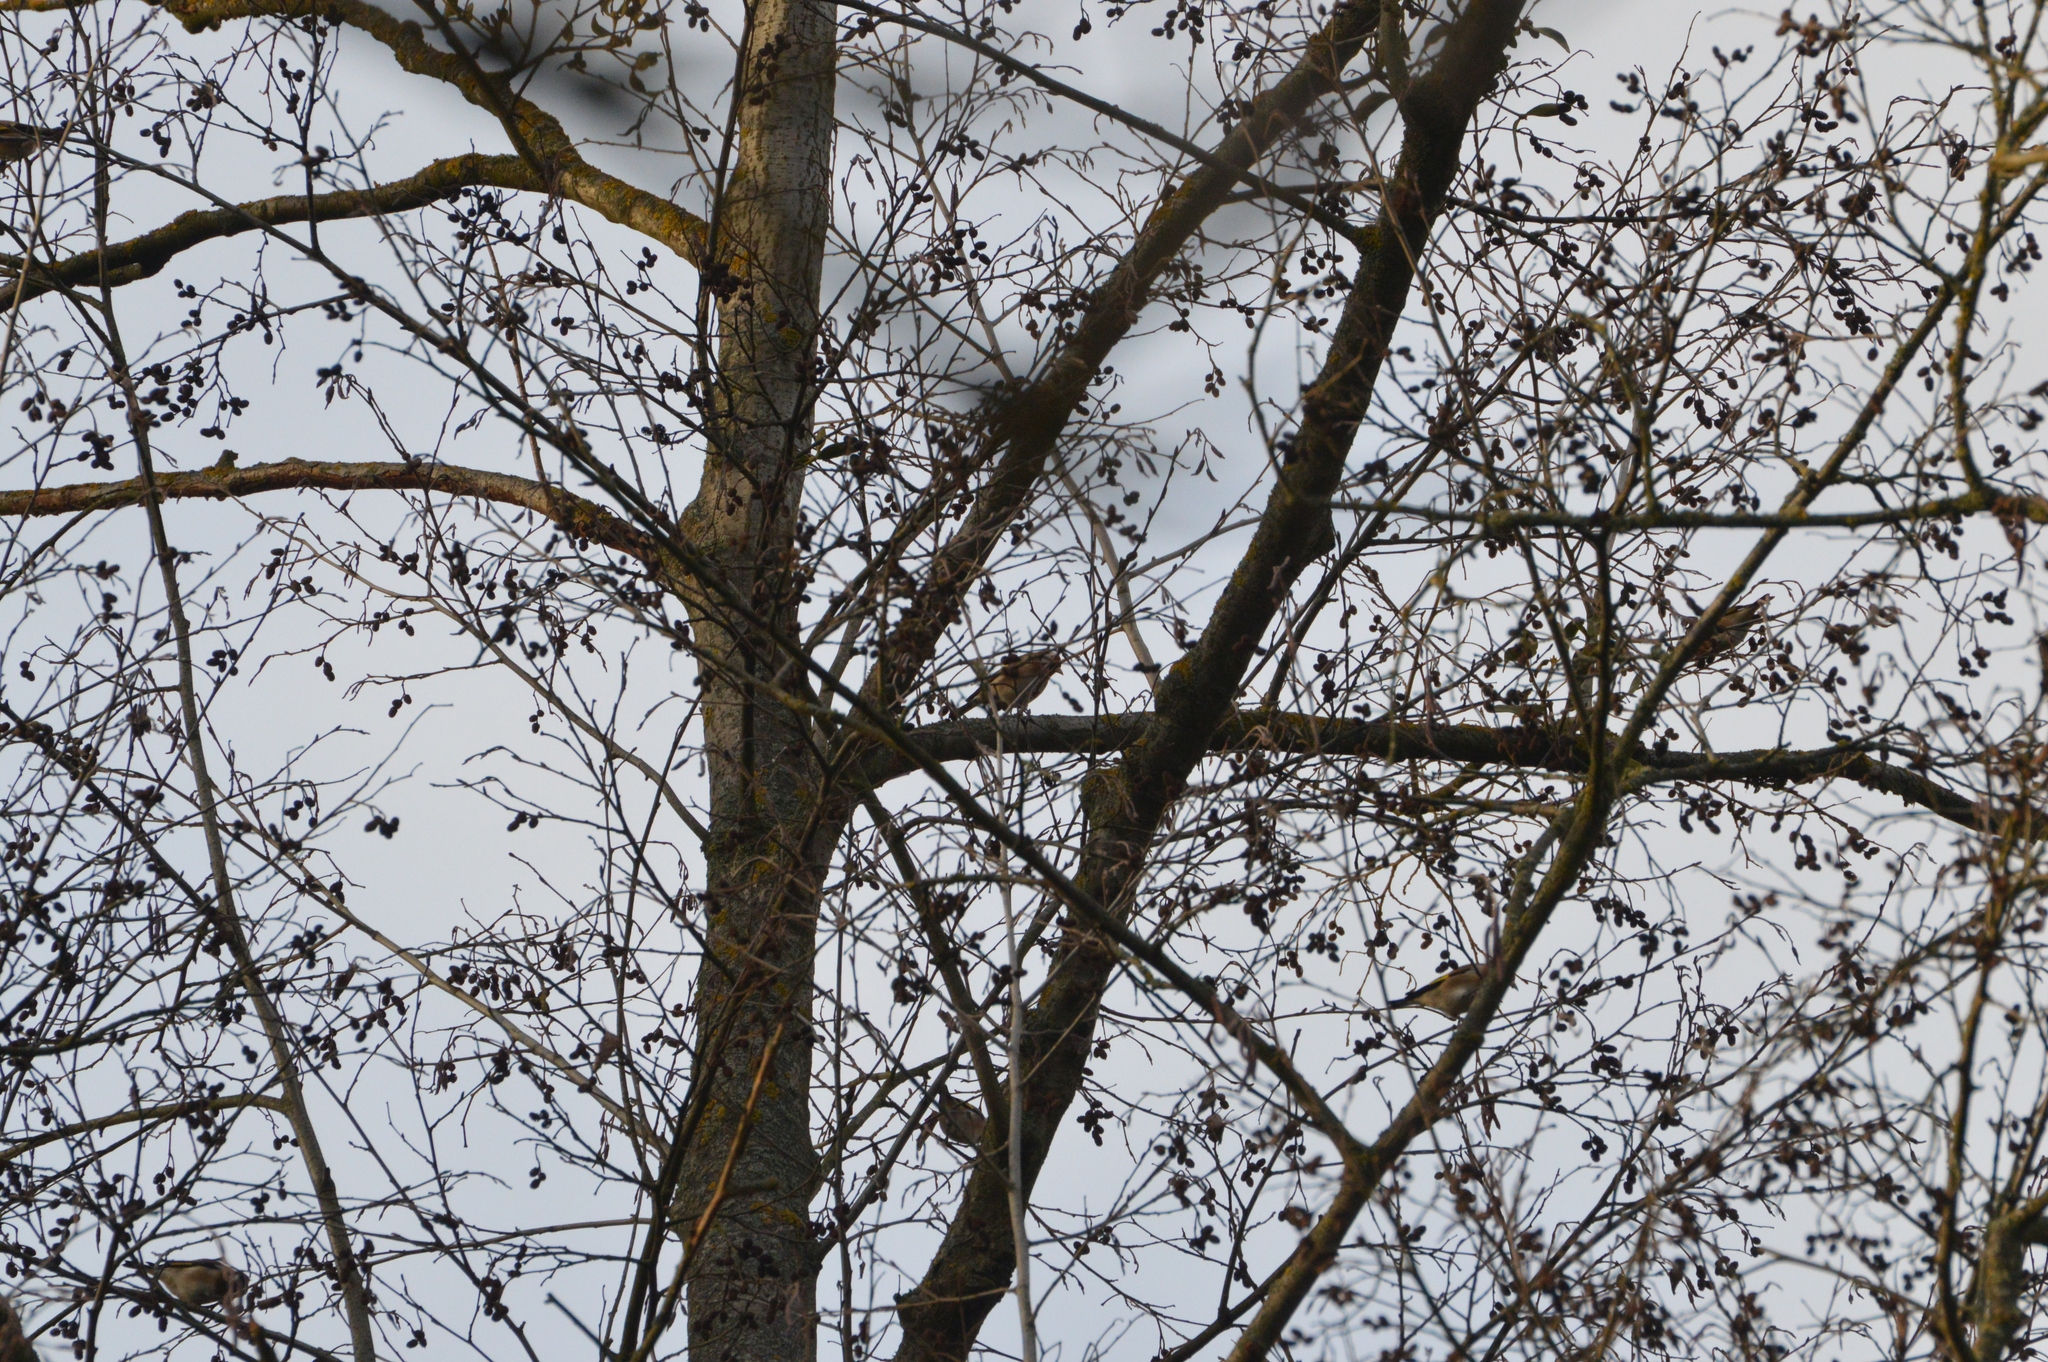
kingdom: Animalia
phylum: Chordata
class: Aves
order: Passeriformes
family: Fringillidae
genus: Carduelis
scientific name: Carduelis carduelis
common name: European goldfinch
